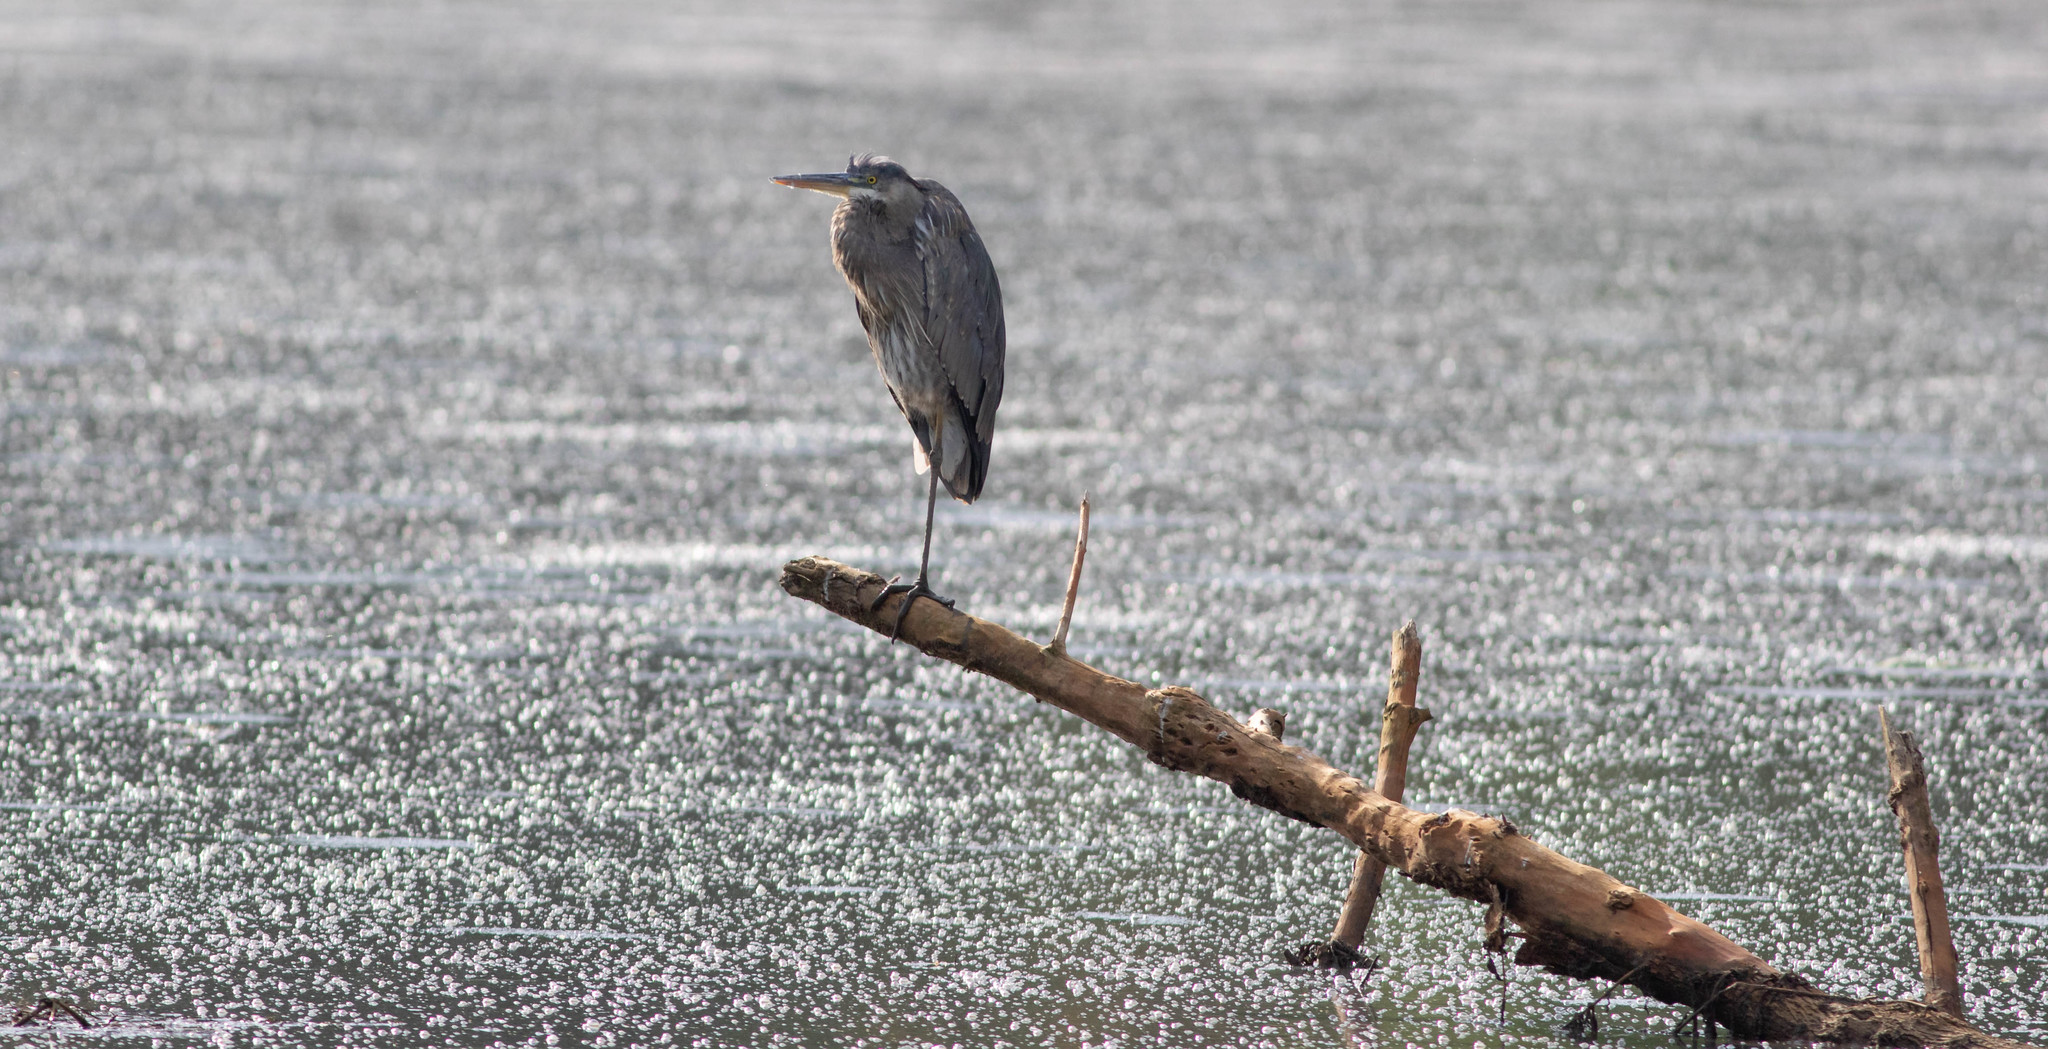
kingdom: Animalia
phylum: Chordata
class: Aves
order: Pelecaniformes
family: Ardeidae
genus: Ardea
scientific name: Ardea herodias
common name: Great blue heron
